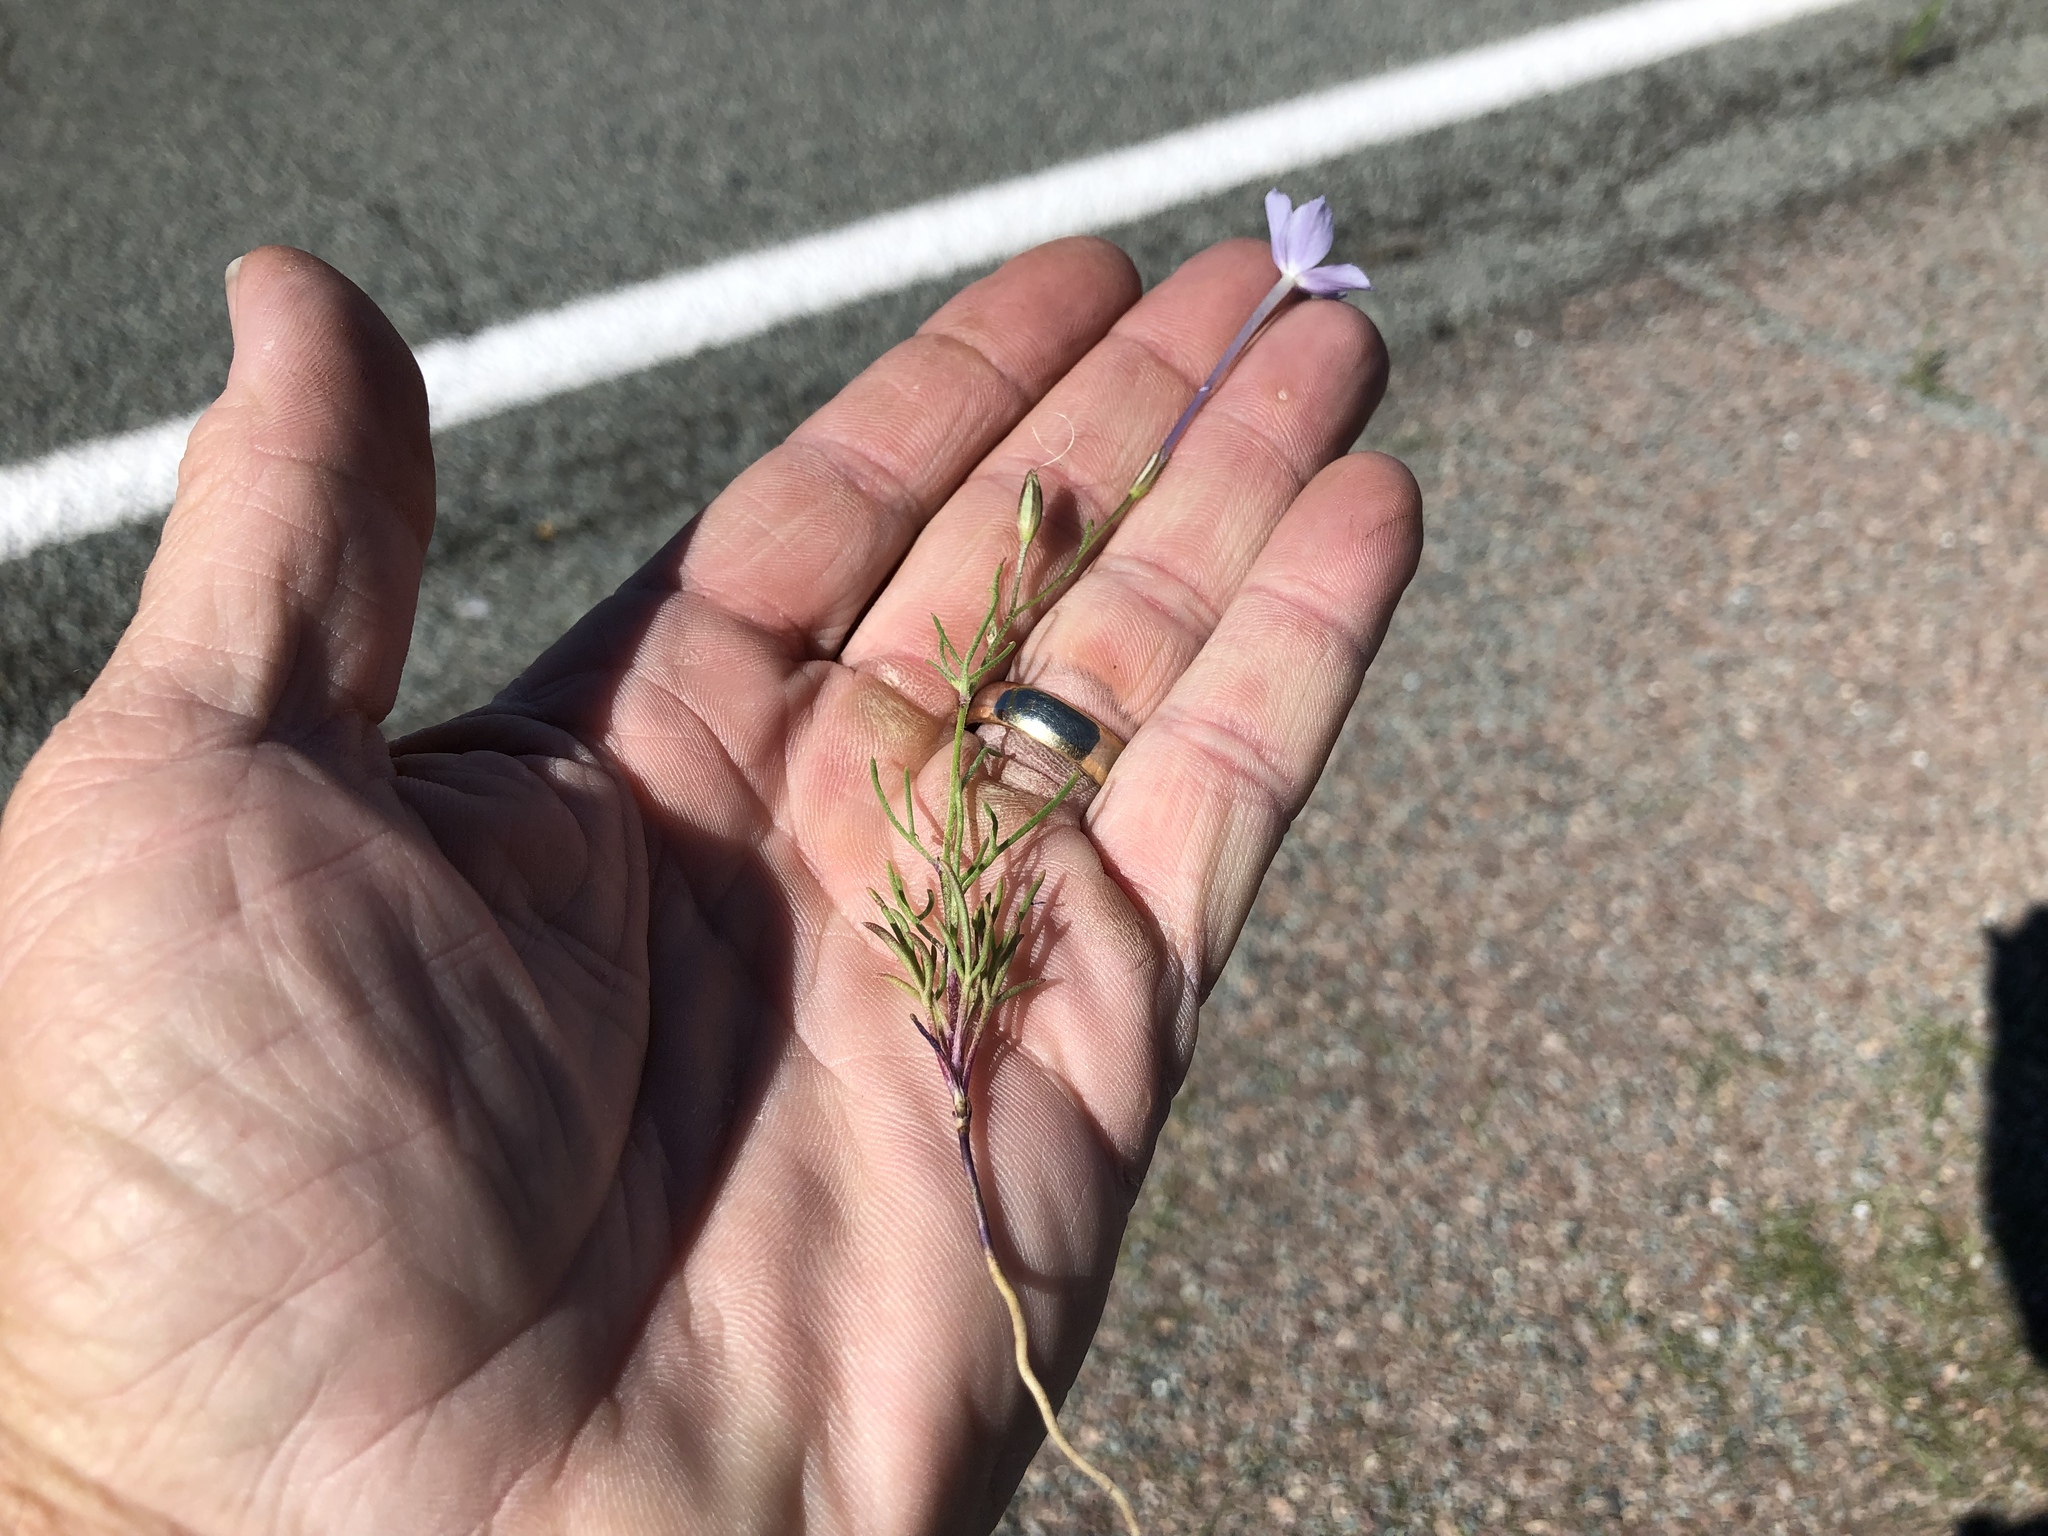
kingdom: Plantae
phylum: Tracheophyta
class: Magnoliopsida
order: Ericales
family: Polemoniaceae
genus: Ipomopsis
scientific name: Ipomopsis longiflora
